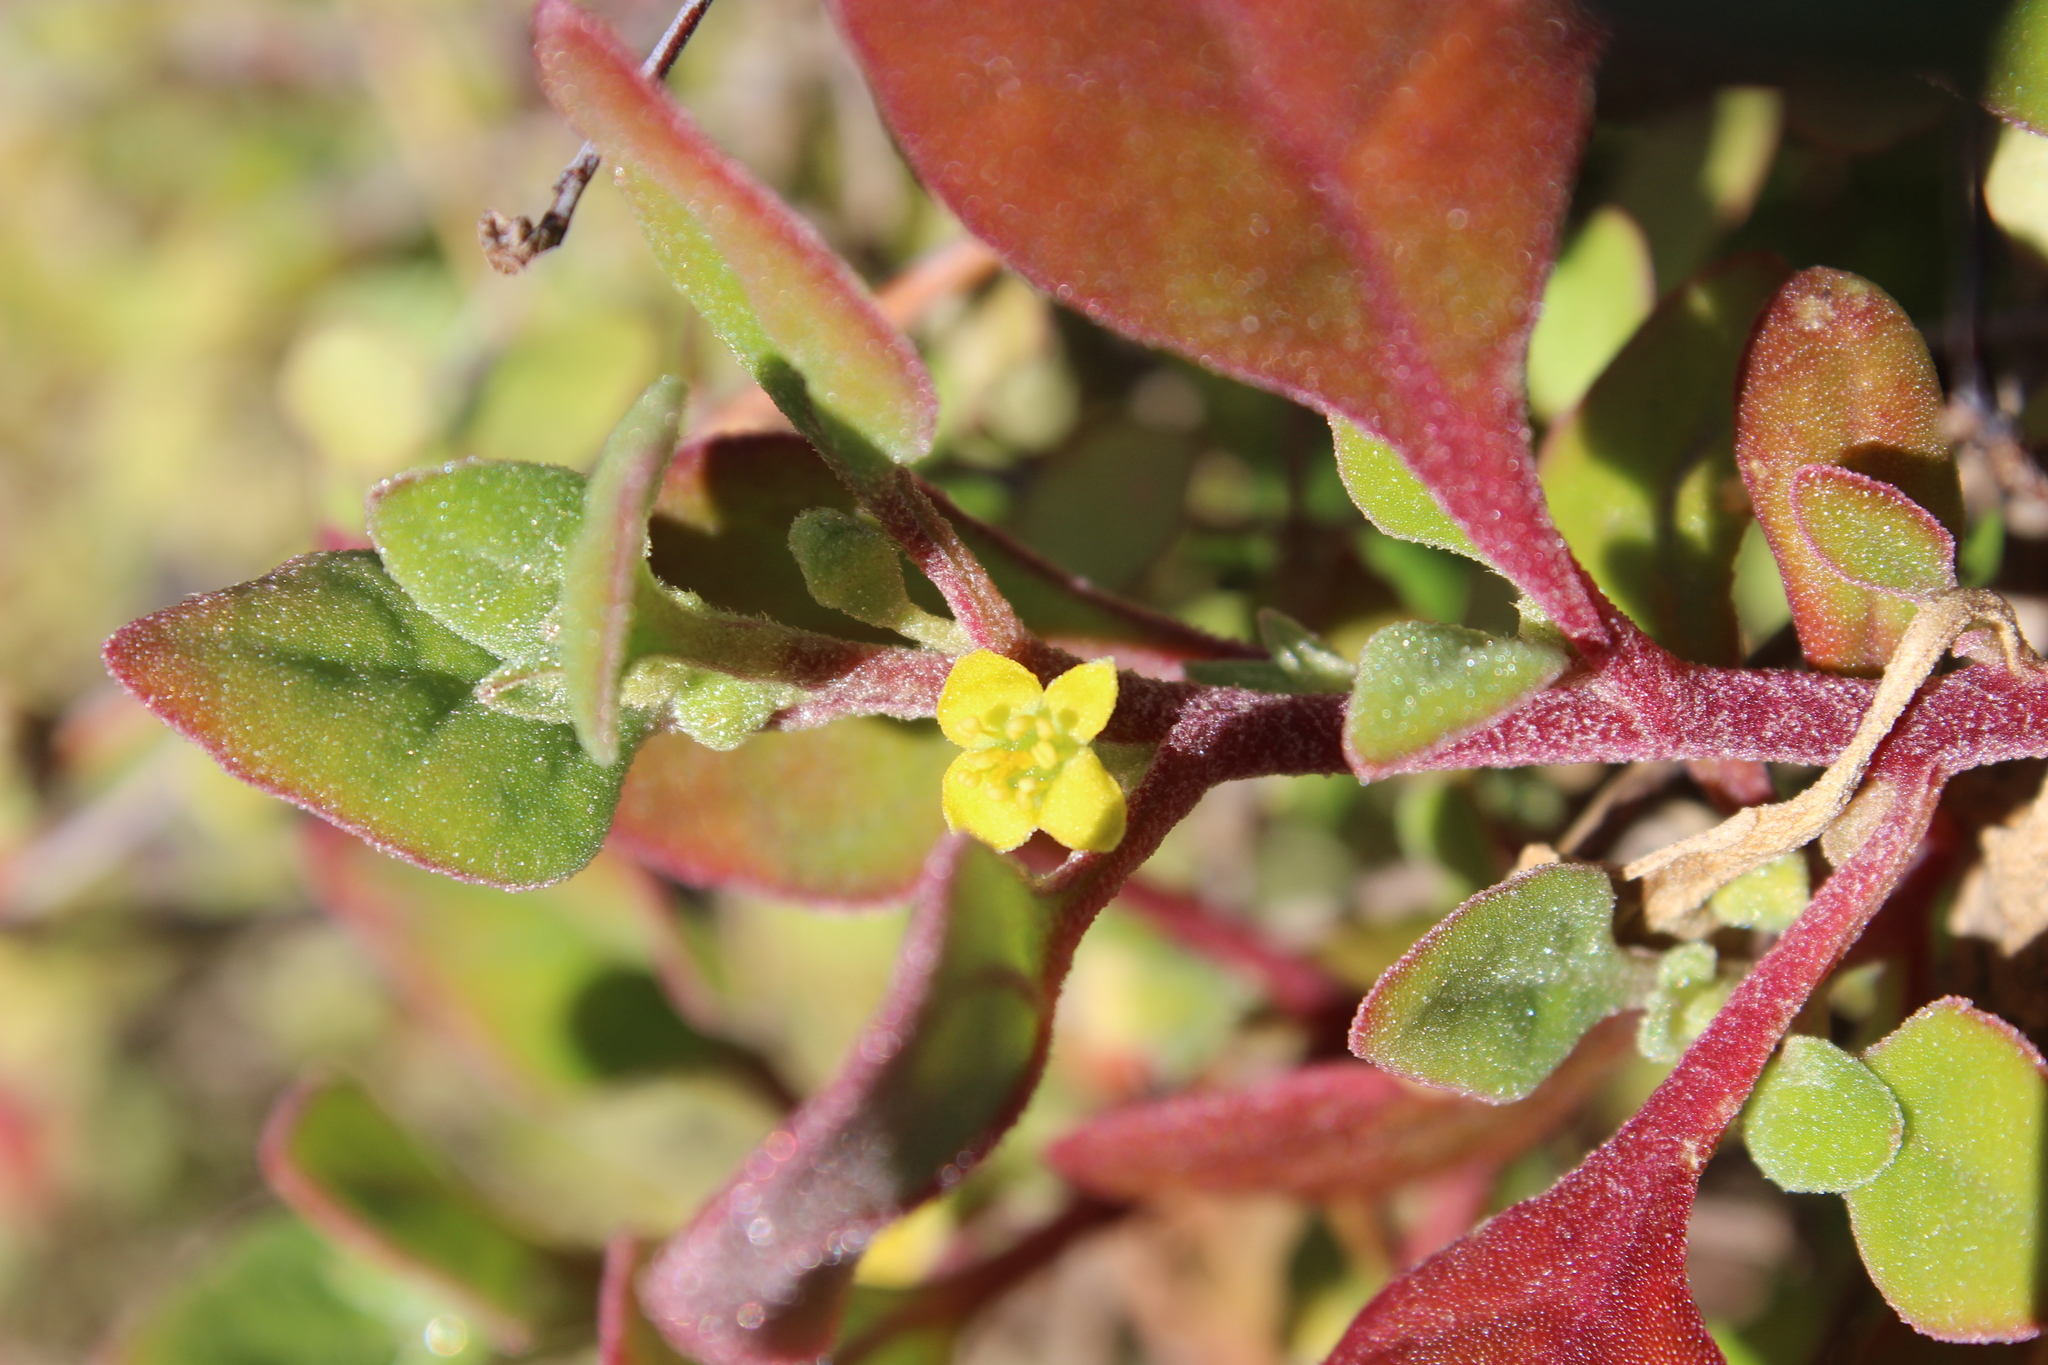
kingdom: Plantae
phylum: Tracheophyta
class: Magnoliopsida
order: Caryophyllales
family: Aizoaceae
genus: Tetragonia
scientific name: Tetragonia implexicoma
